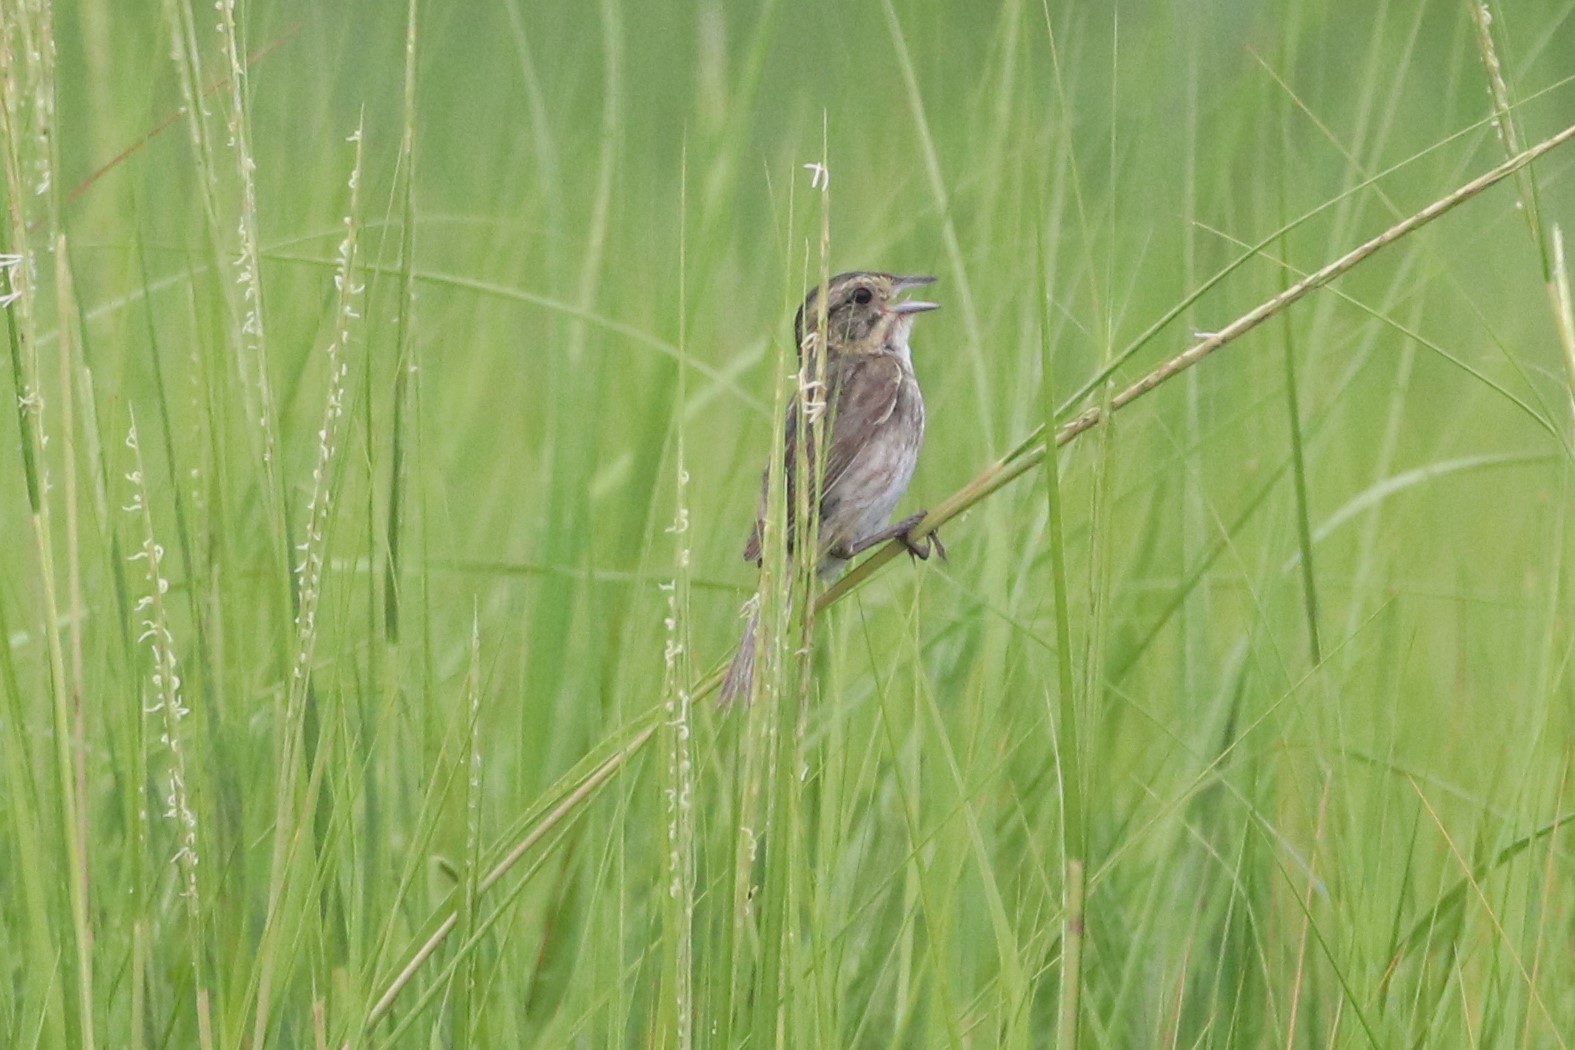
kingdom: Animalia
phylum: Chordata
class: Aves
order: Passeriformes
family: Passerellidae
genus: Ammospiza
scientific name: Ammospiza nelsoni
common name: Nelson's sparrow
